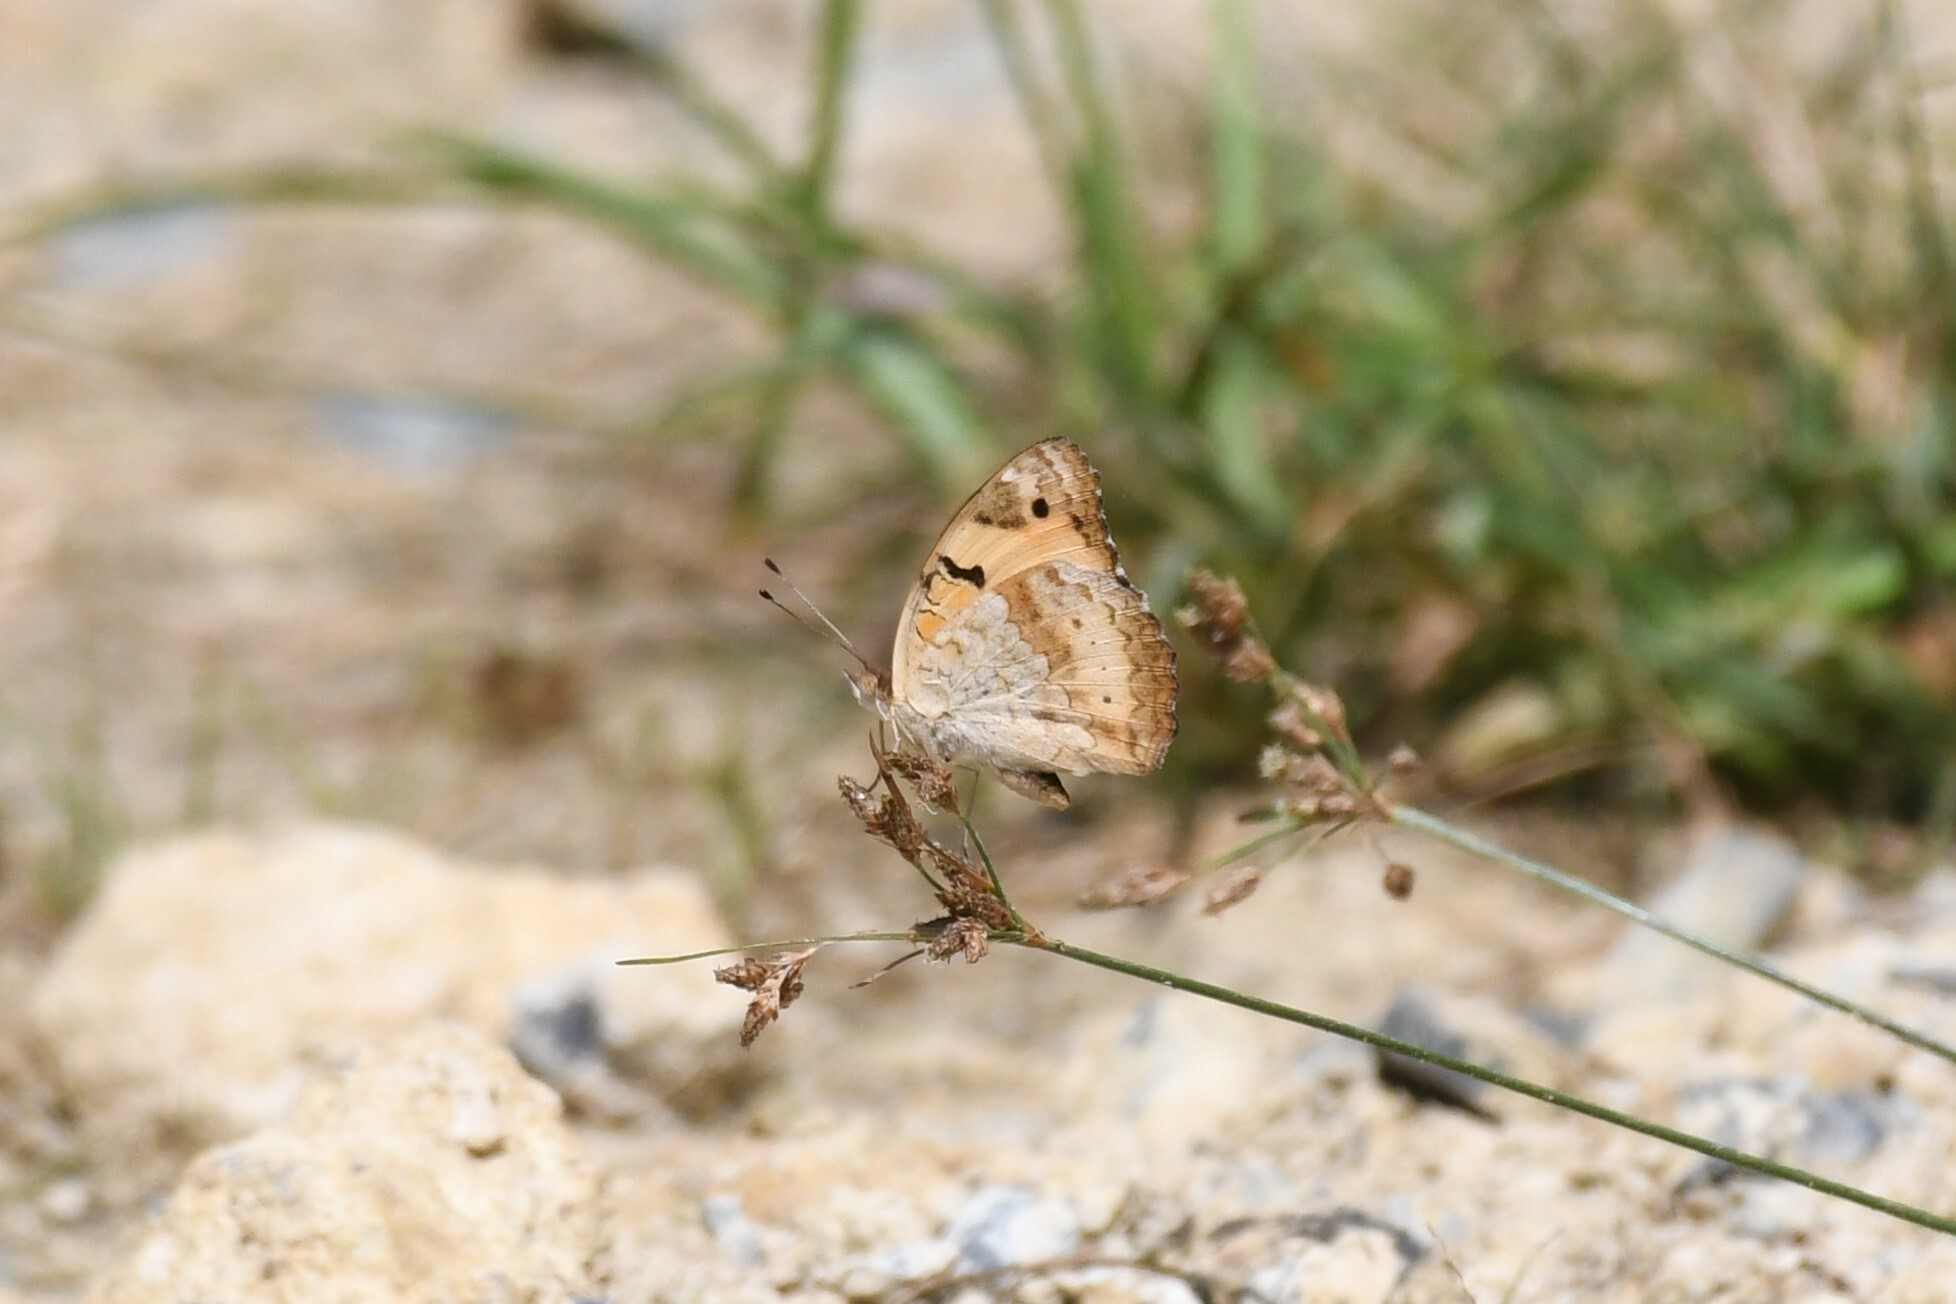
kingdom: Animalia
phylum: Arthropoda
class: Insecta
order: Lepidoptera
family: Nymphalidae
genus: Junonia
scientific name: Junonia hierta
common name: Yellow pansy
